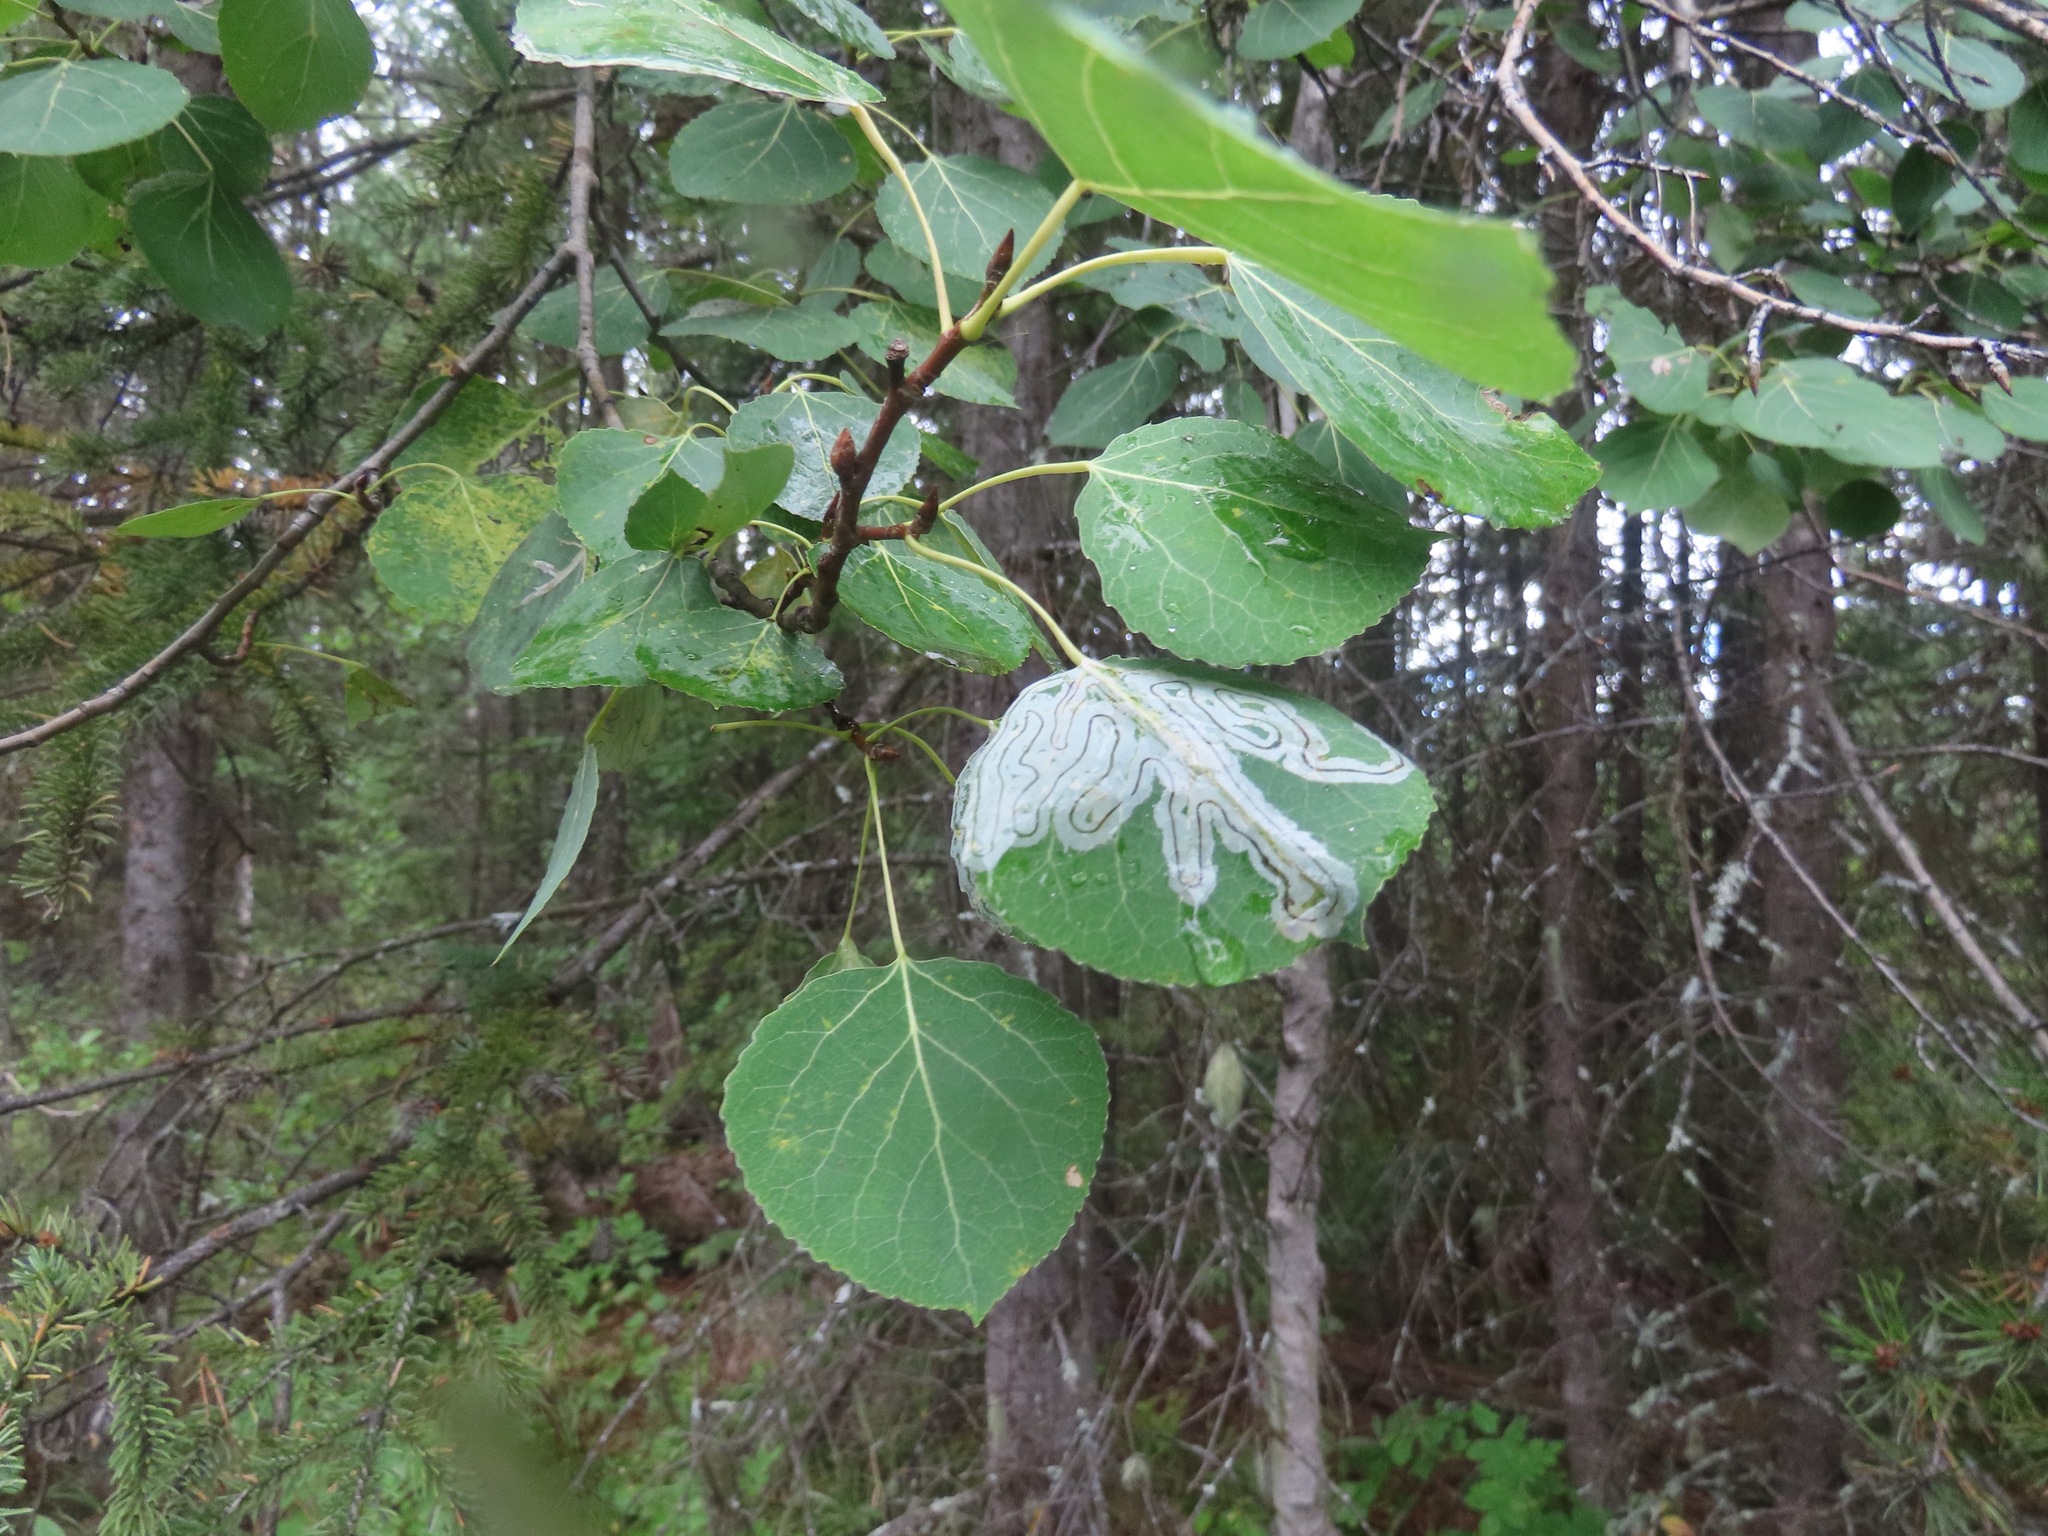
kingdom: Plantae
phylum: Tracheophyta
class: Magnoliopsida
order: Malpighiales
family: Salicaceae
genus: Populus
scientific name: Populus tremuloides
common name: Quaking aspen
